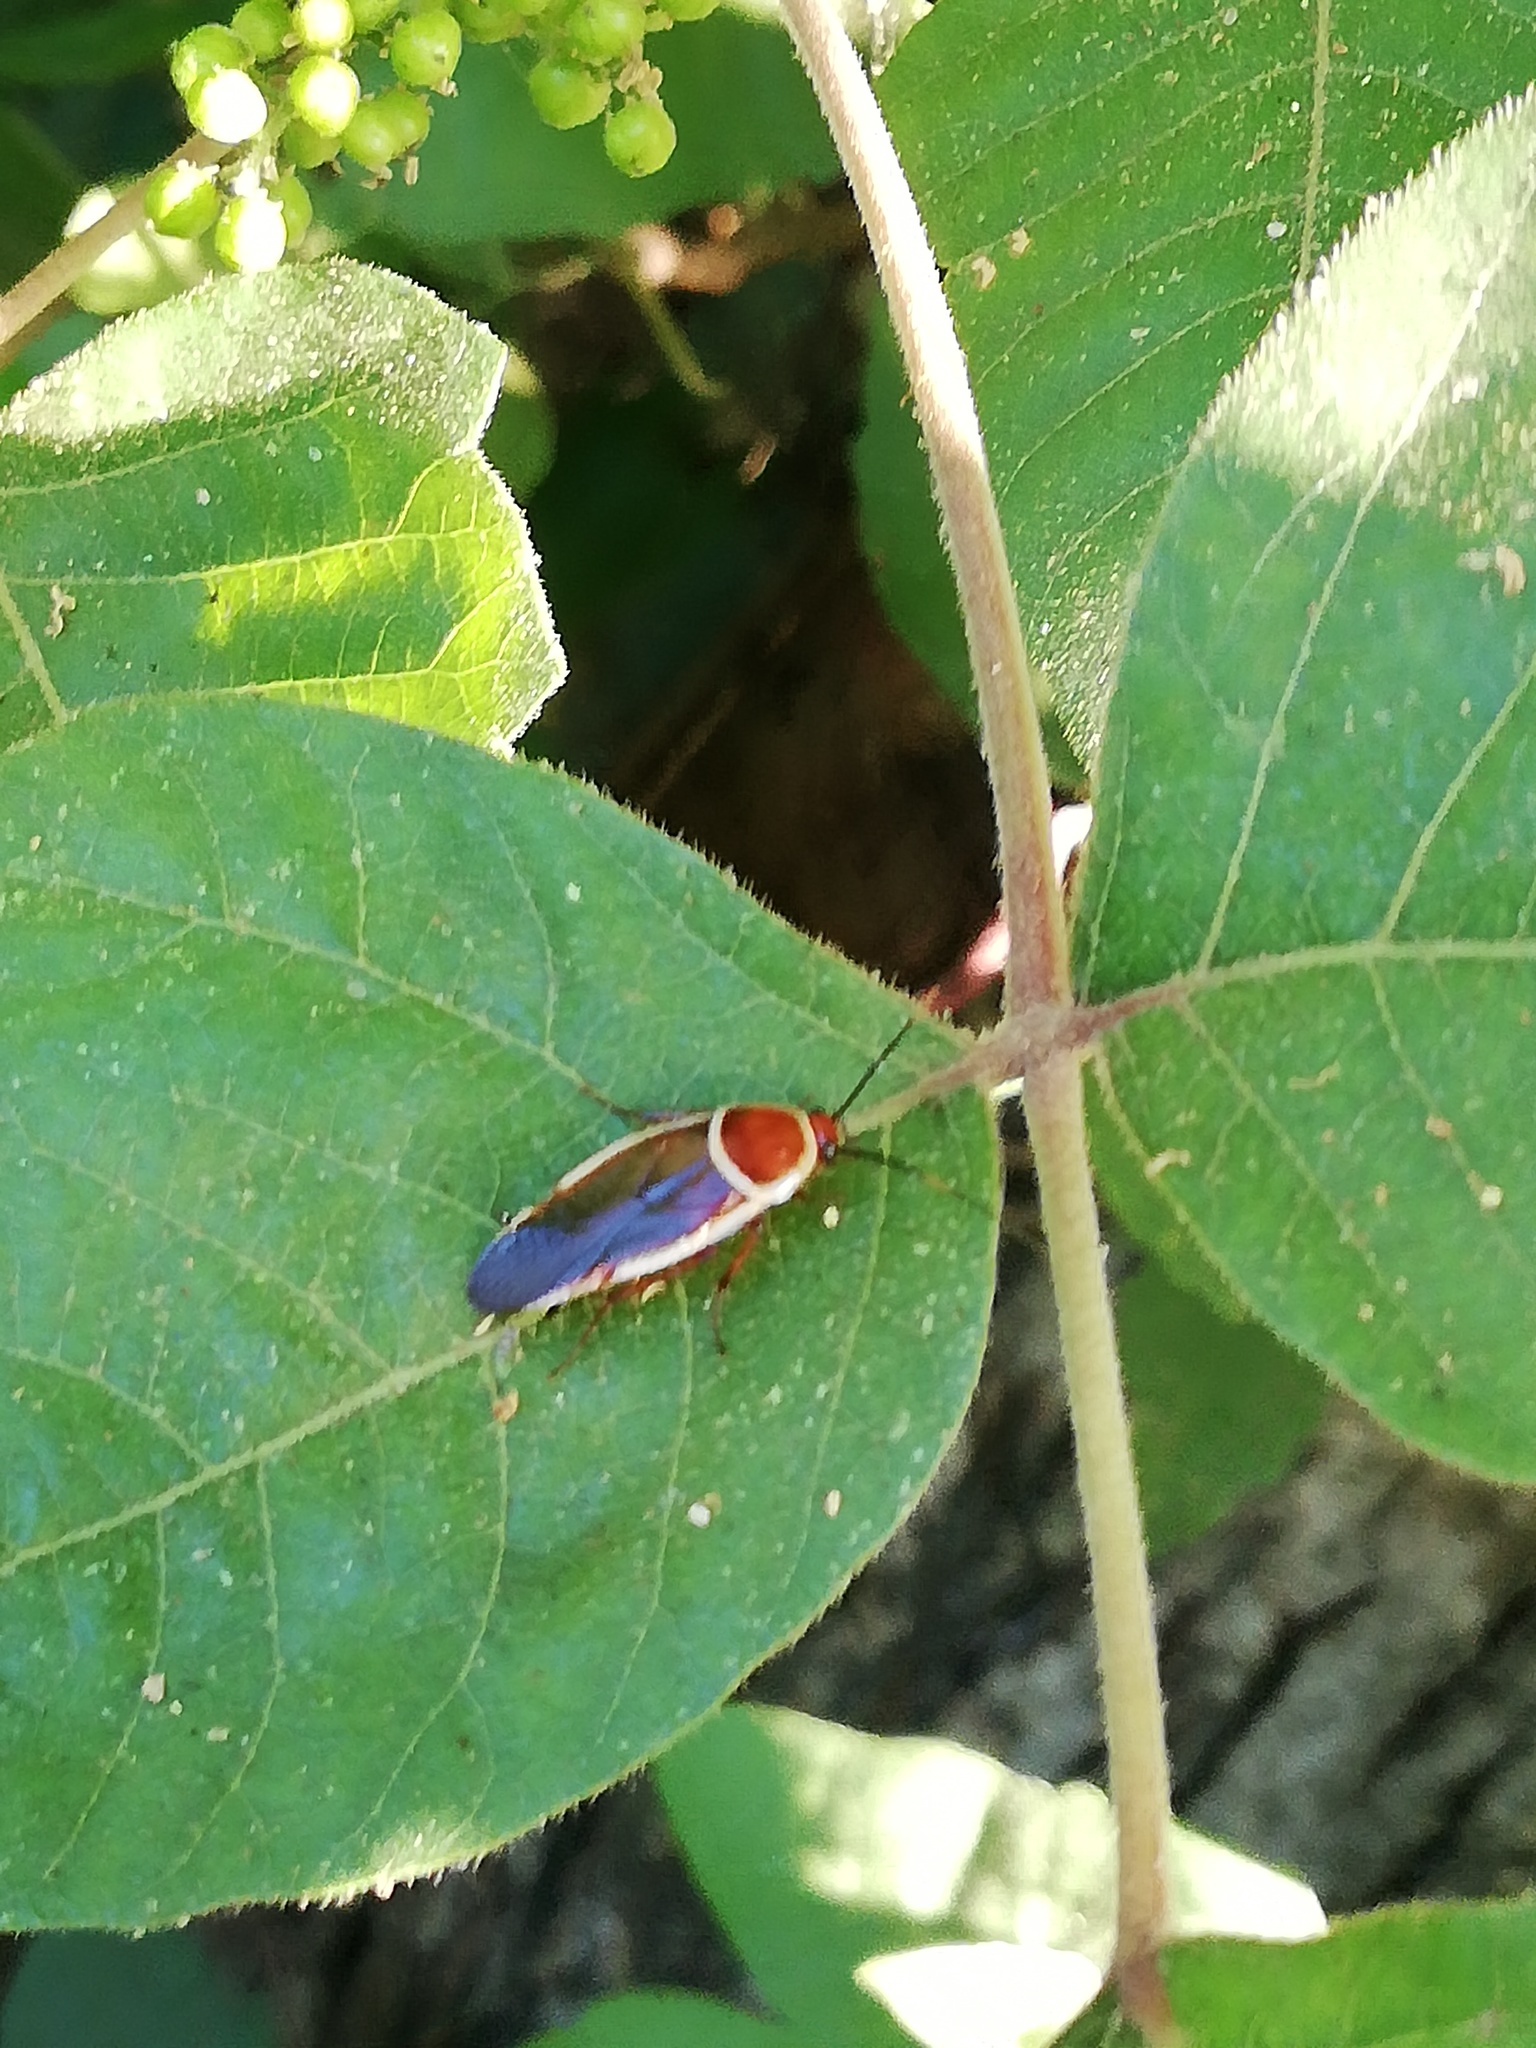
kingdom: Animalia
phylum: Arthropoda
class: Insecta
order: Blattodea
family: Ectobiidae
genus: Pseudomops
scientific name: Pseudomops septentrionalis
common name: Pale-bordered field cockroach
